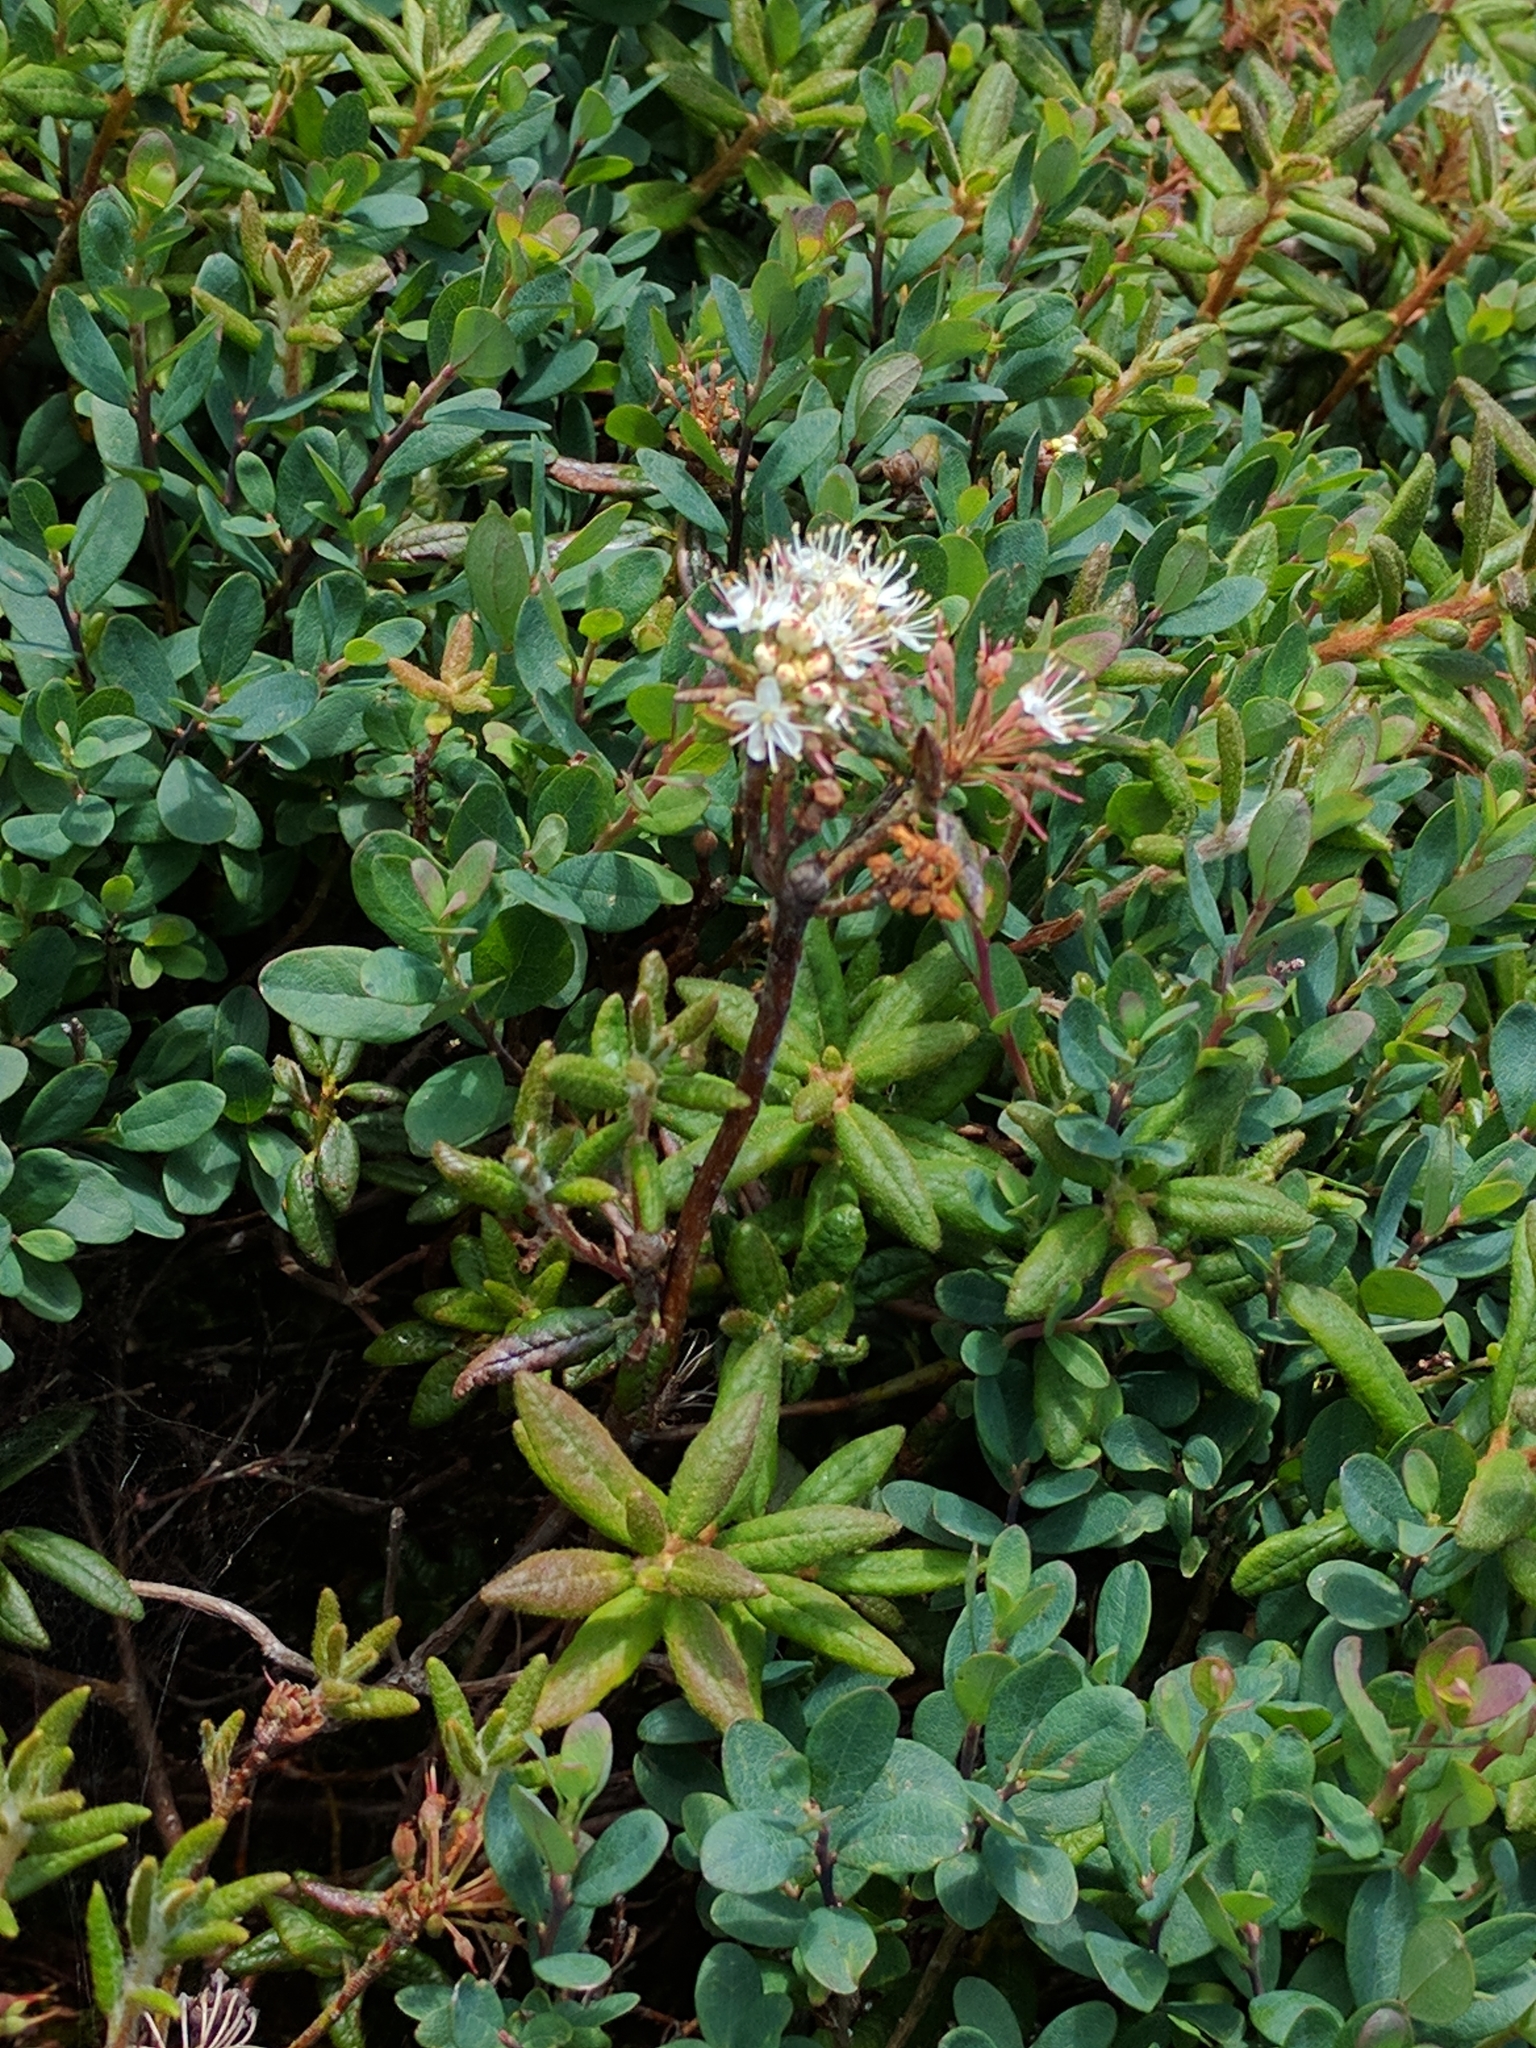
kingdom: Plantae
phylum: Tracheophyta
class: Magnoliopsida
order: Ericales
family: Ericaceae
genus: Rhododendron
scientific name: Rhododendron groenlandicum
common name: Bog labrador tea
